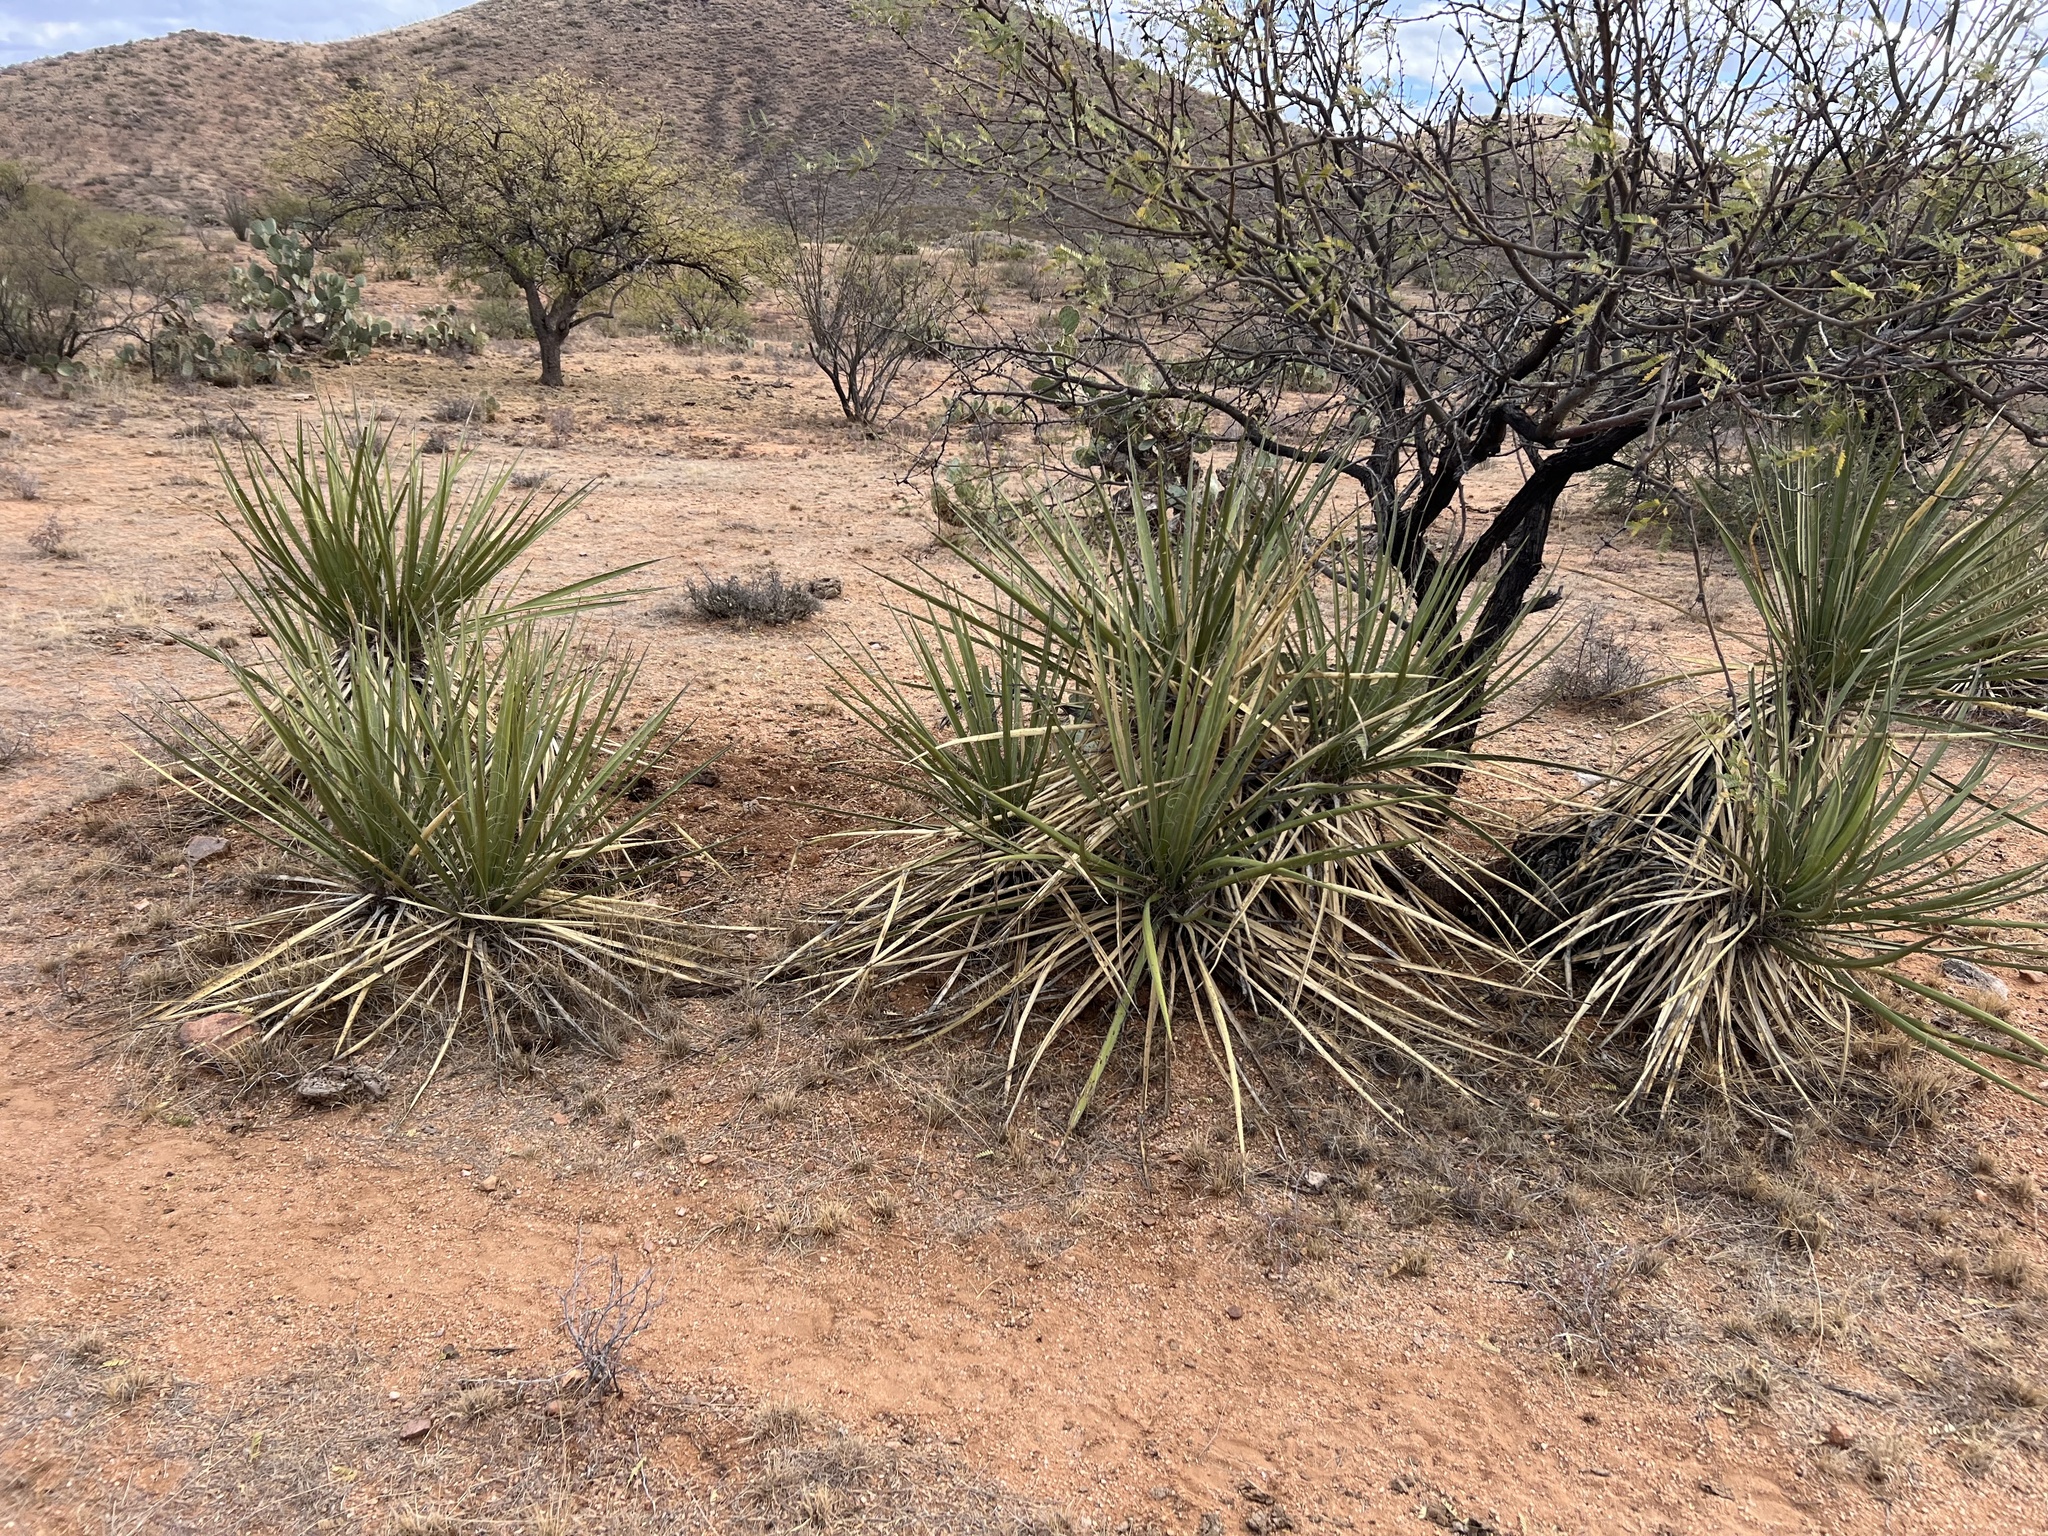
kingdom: Plantae
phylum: Tracheophyta
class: Liliopsida
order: Asparagales
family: Asparagaceae
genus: Yucca
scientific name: Yucca baccata
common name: Banana yucca
